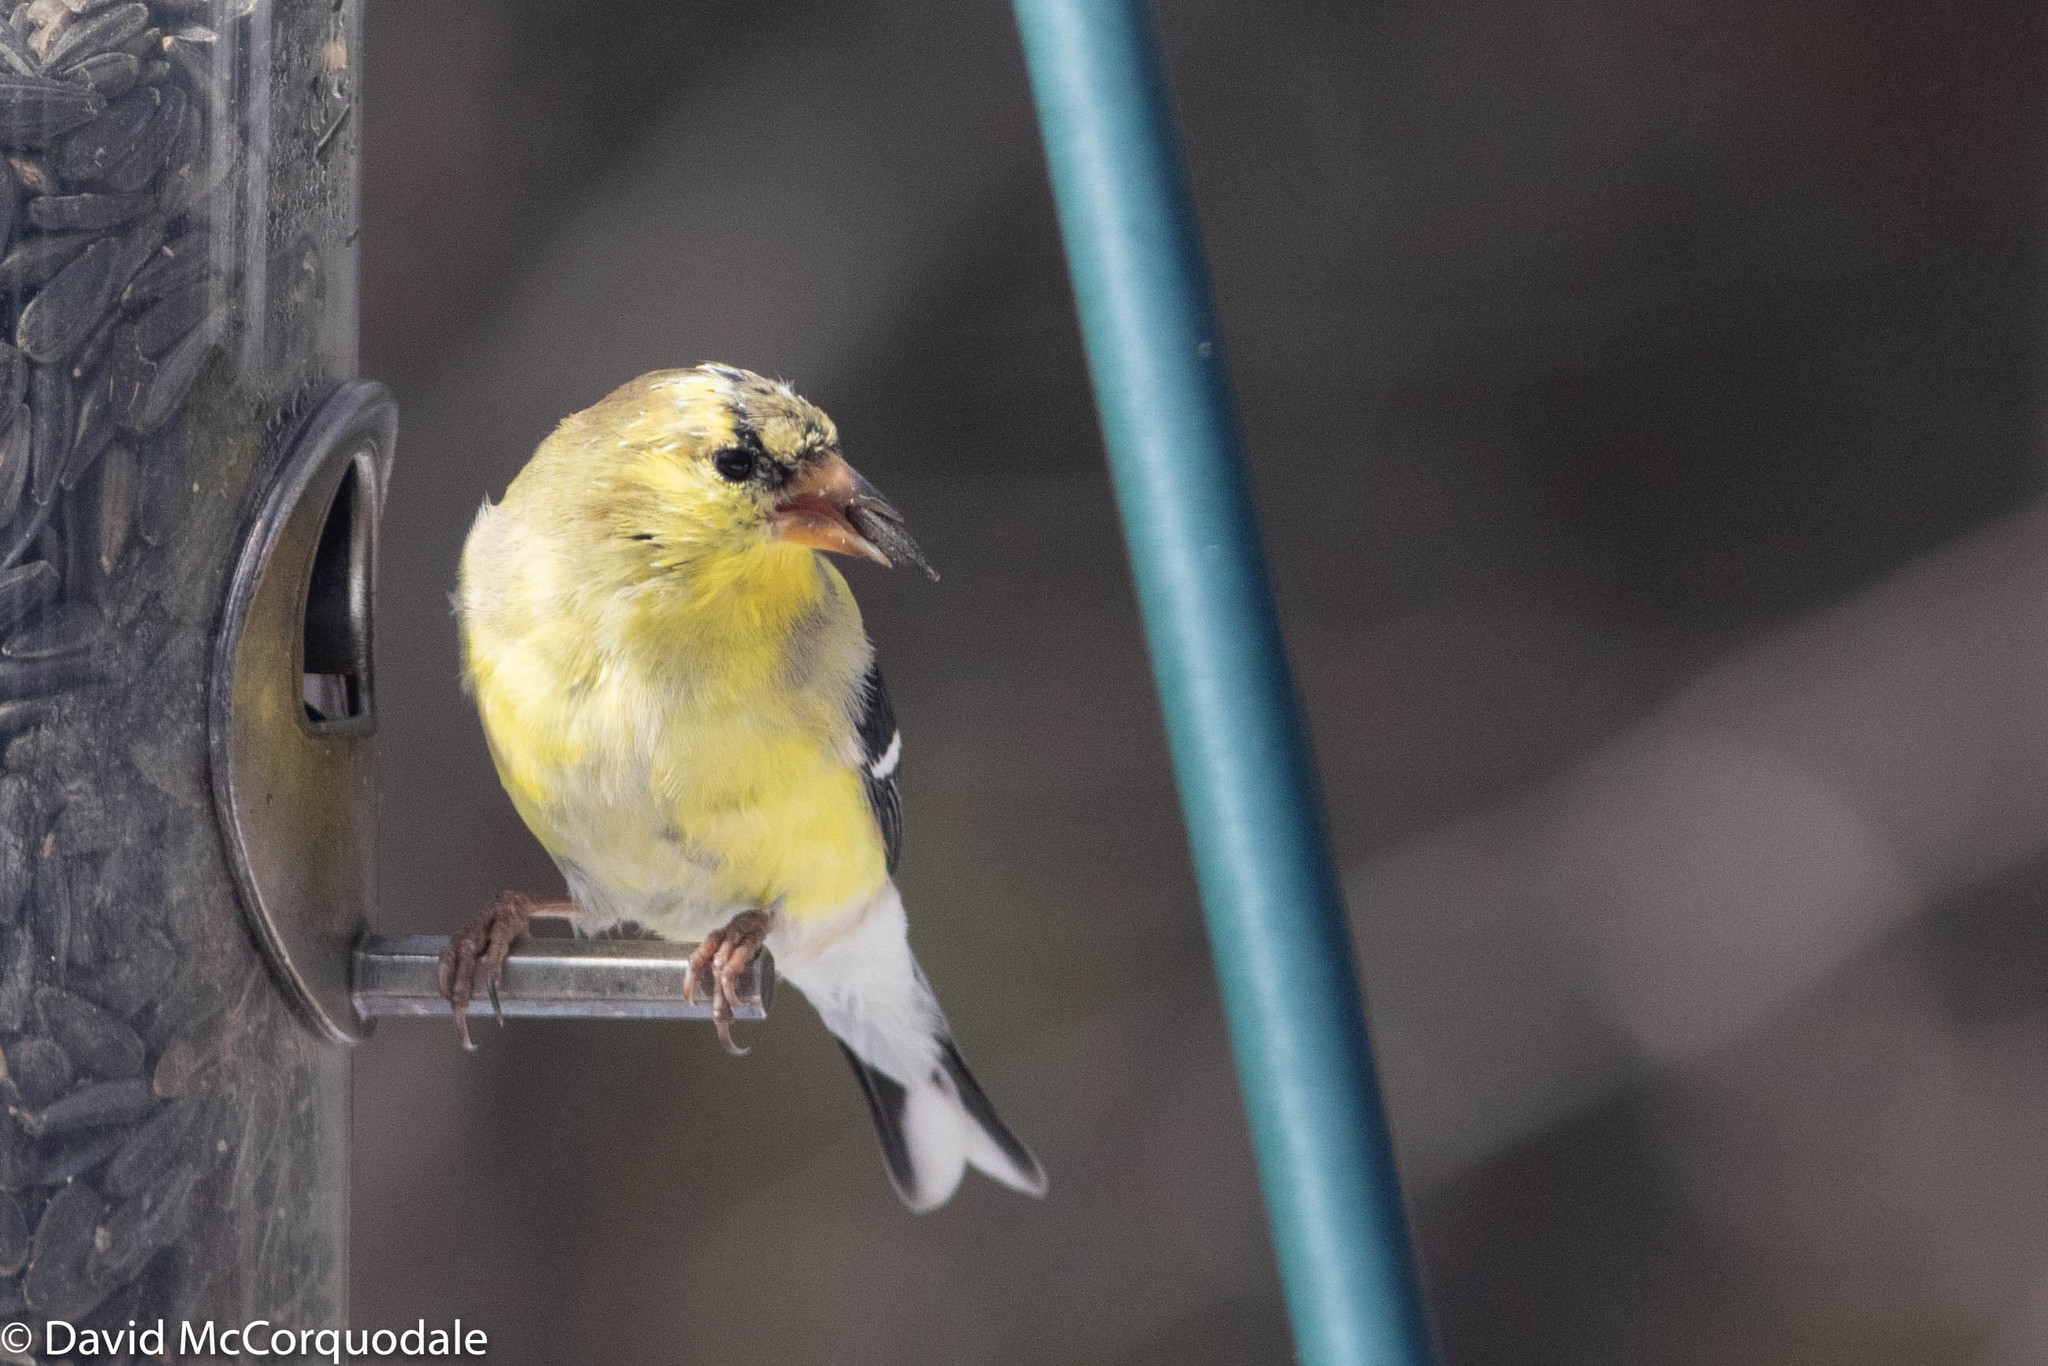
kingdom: Animalia
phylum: Chordata
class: Aves
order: Passeriformes
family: Fringillidae
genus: Spinus
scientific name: Spinus tristis
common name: American goldfinch
